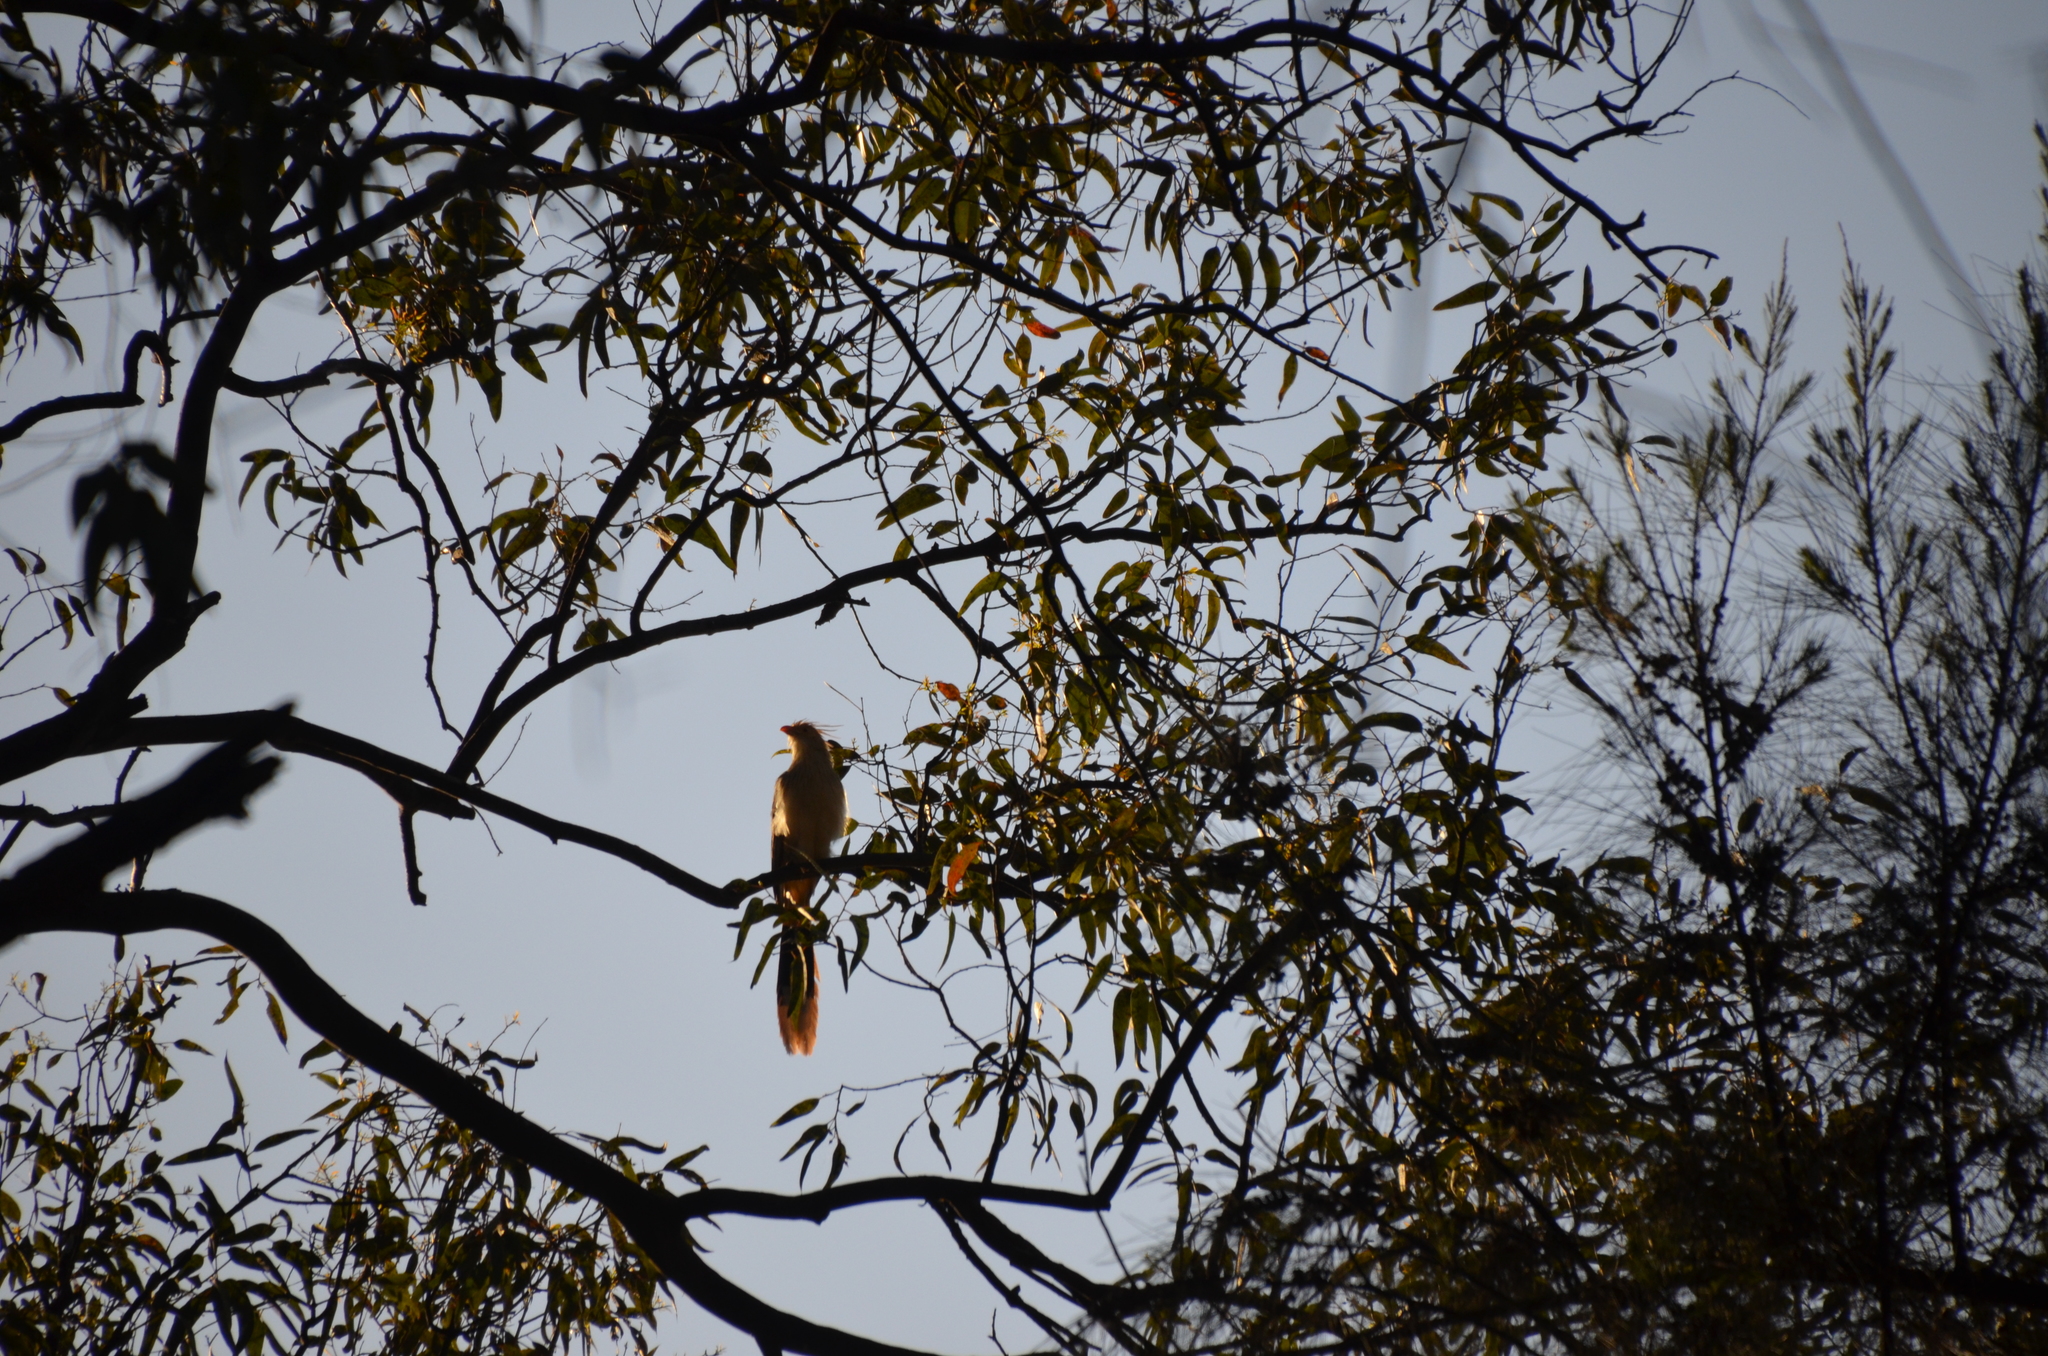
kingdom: Animalia
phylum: Chordata
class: Aves
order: Cuculiformes
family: Cuculidae
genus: Guira
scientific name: Guira guira
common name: Guira cuckoo
